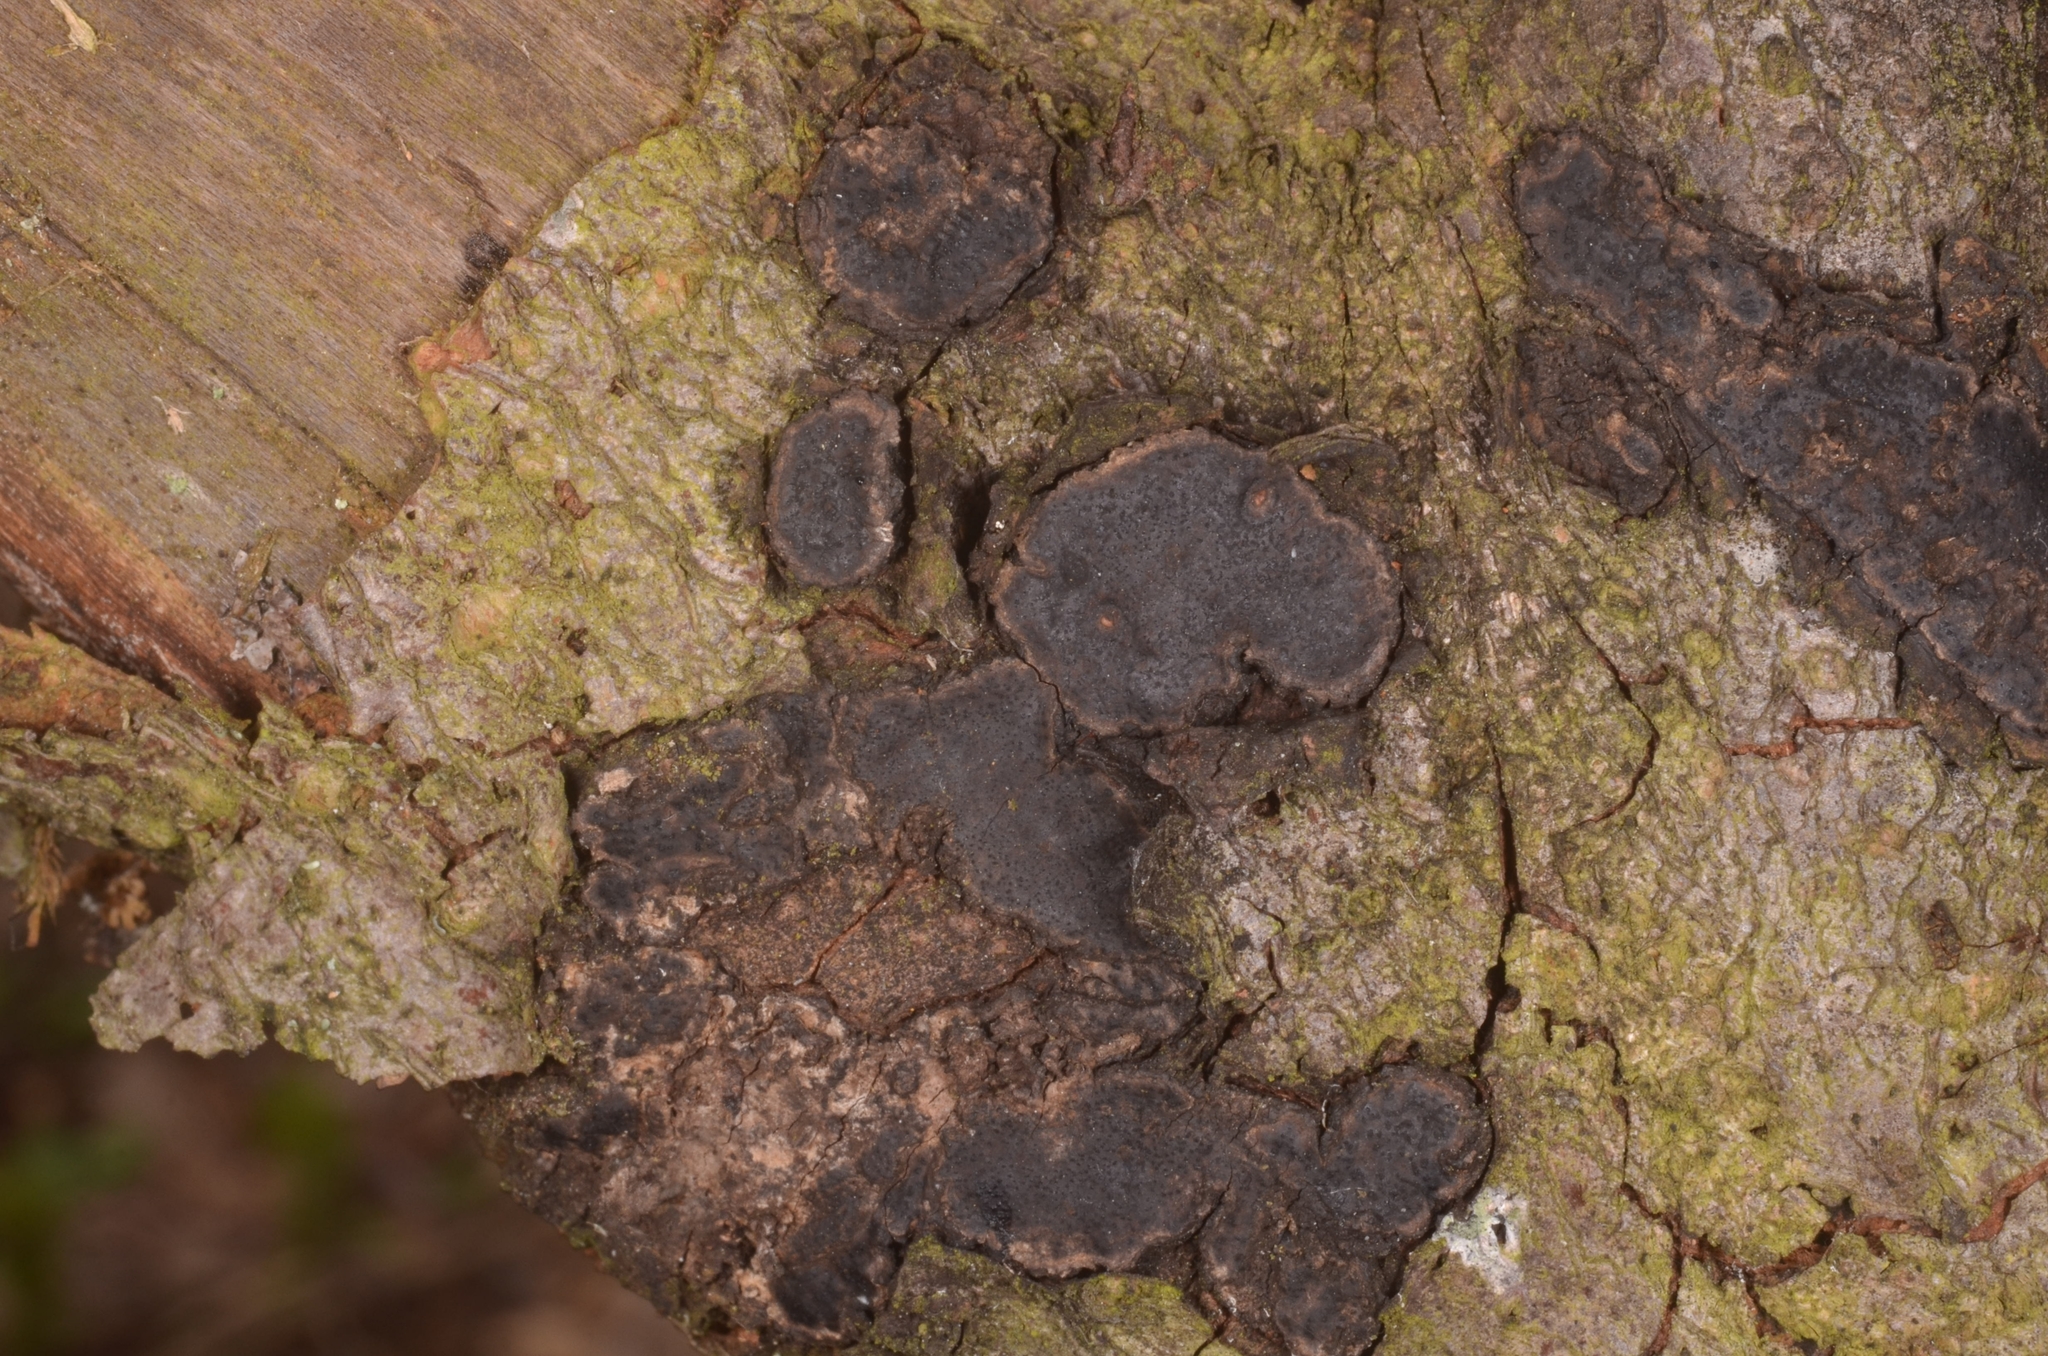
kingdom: Fungi
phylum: Ascomycota
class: Sordariomycetes
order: Xylariales
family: Graphostromataceae
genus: Biscogniauxia
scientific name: Biscogniauxia granmoi
